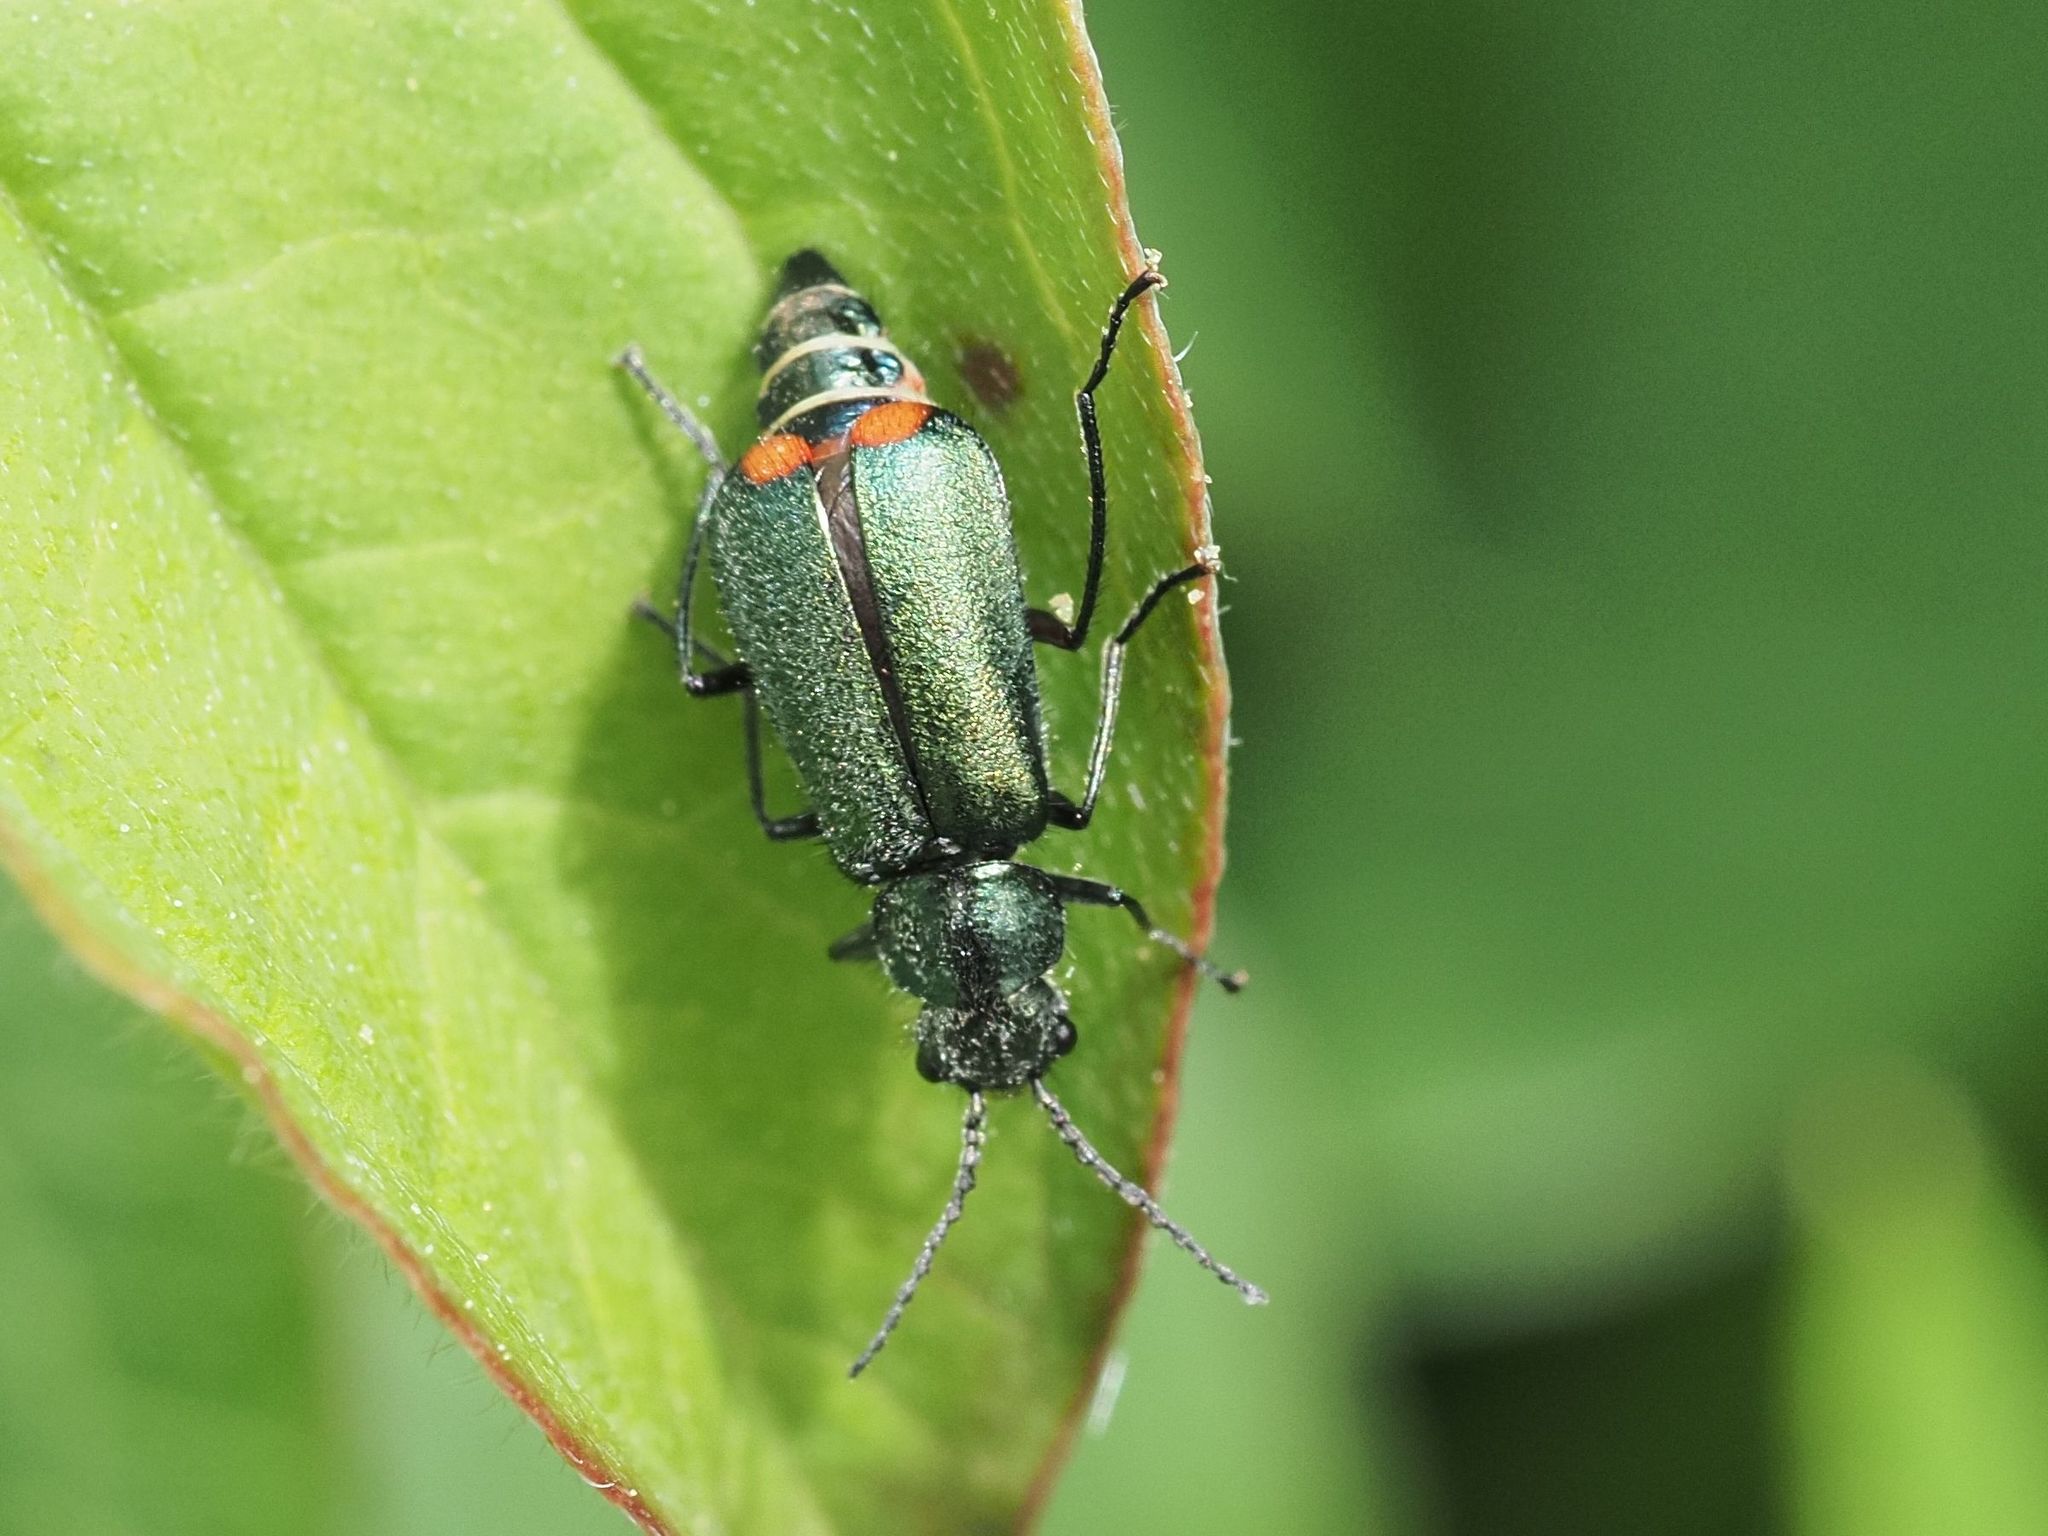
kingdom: Animalia
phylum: Arthropoda
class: Insecta
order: Coleoptera
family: Melyridae
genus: Malachius
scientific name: Malachius bipustulatus
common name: Malachite beetle
